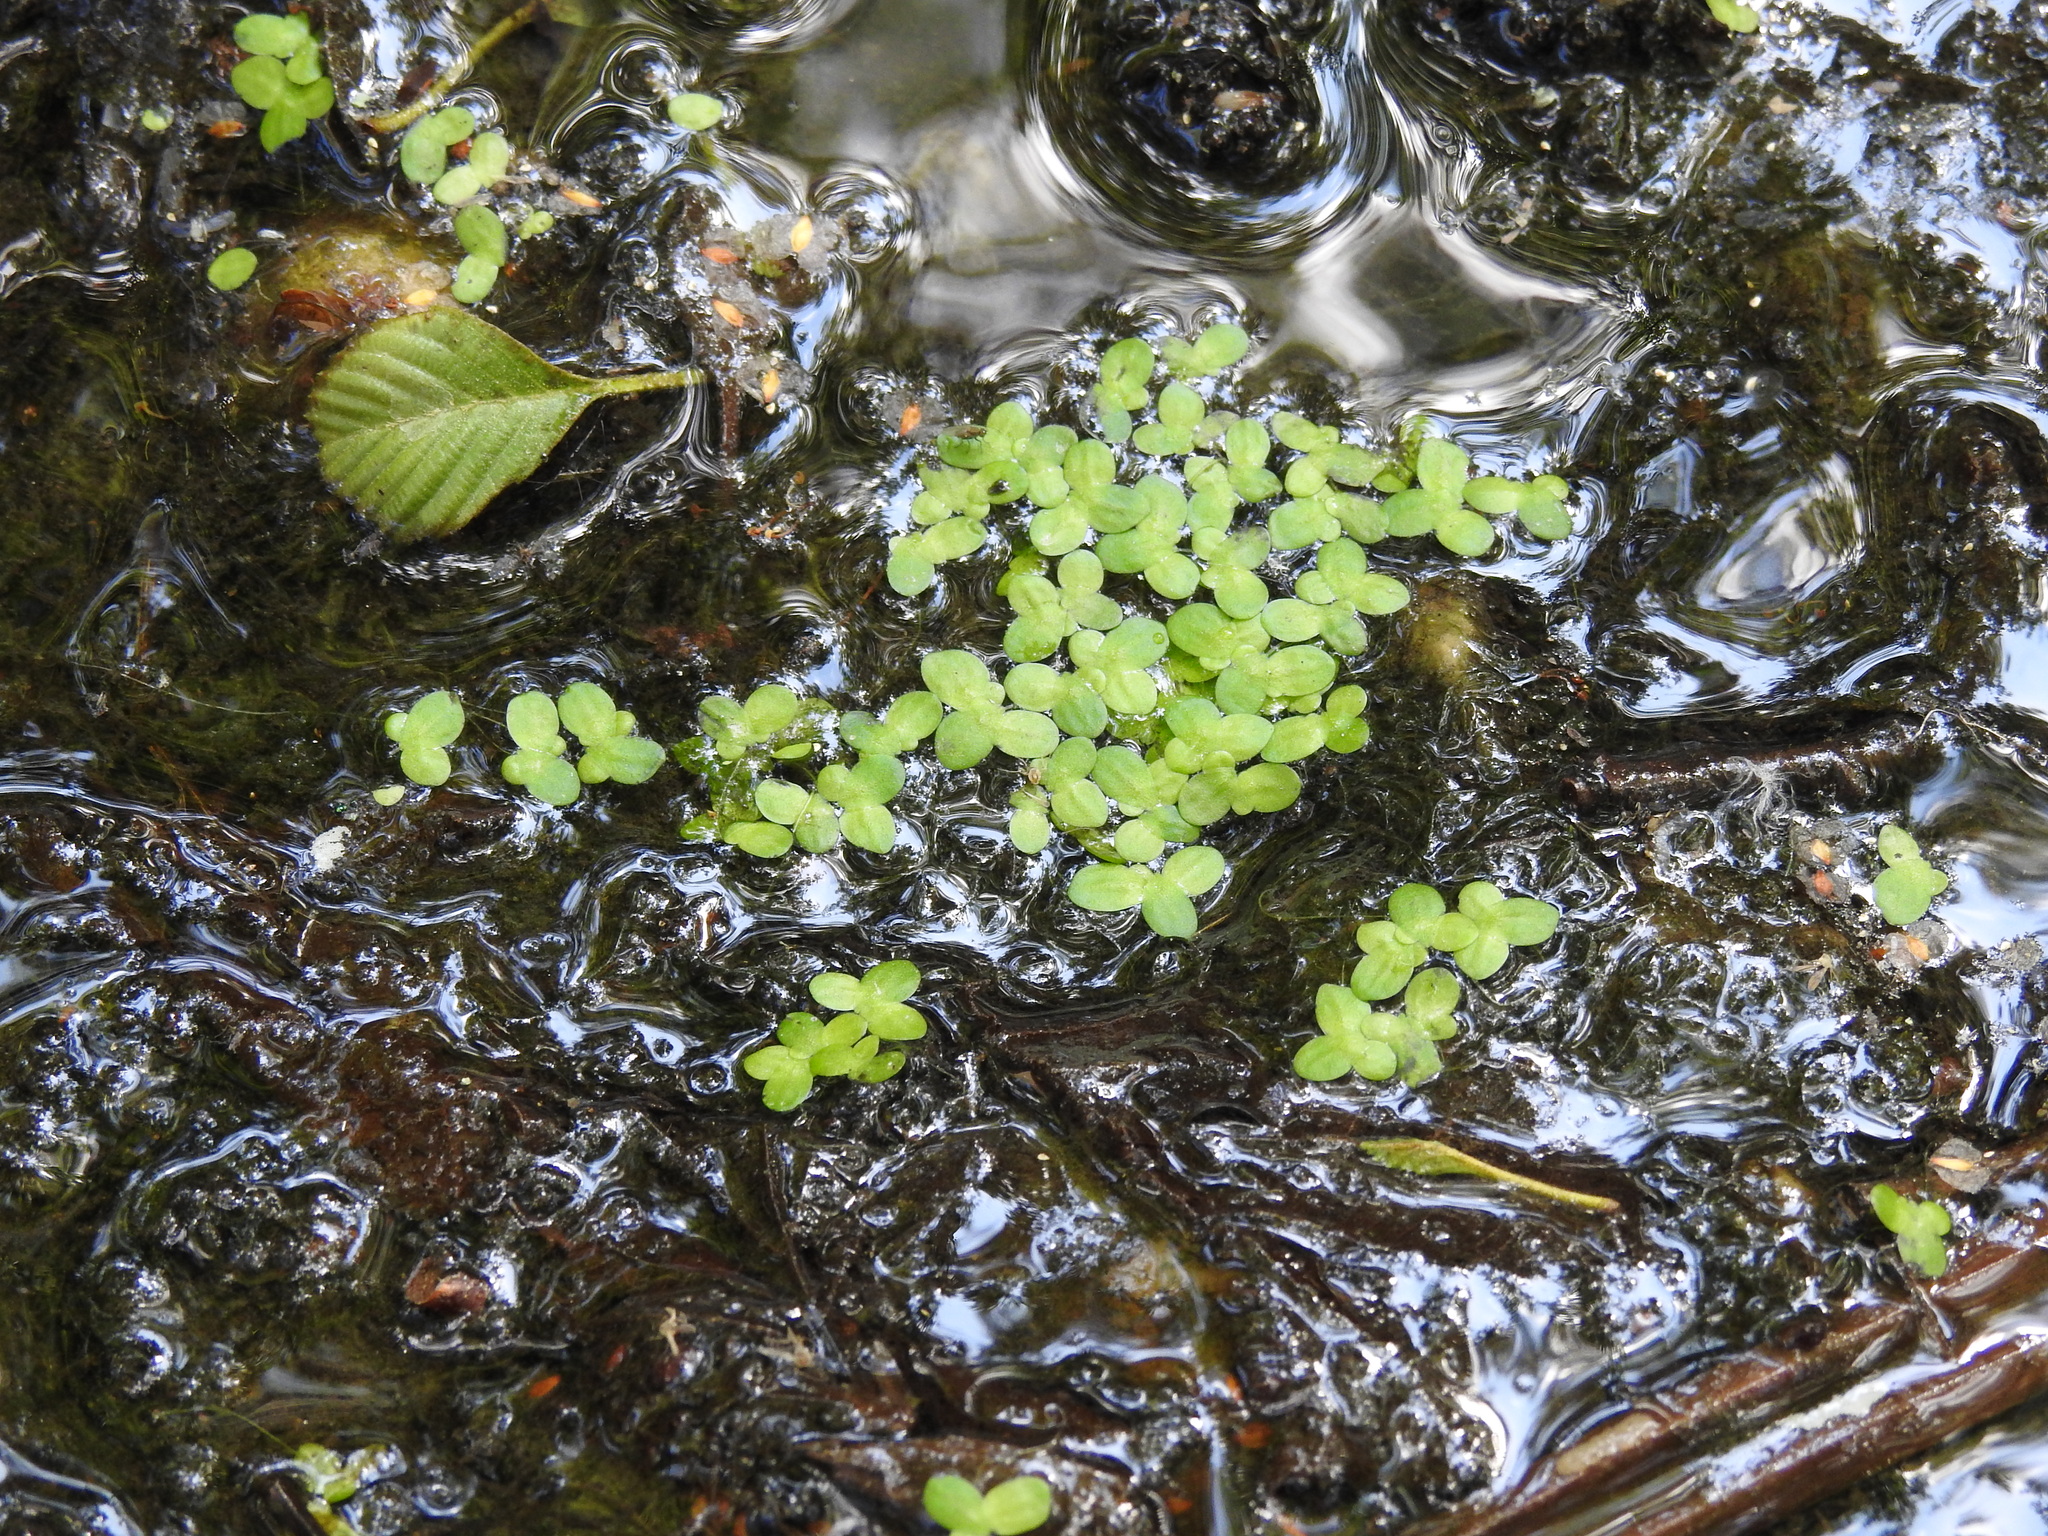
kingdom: Plantae
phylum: Tracheophyta
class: Liliopsida
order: Alismatales
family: Araceae
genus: Lemna
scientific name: Lemna minor
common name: Common duckweed
